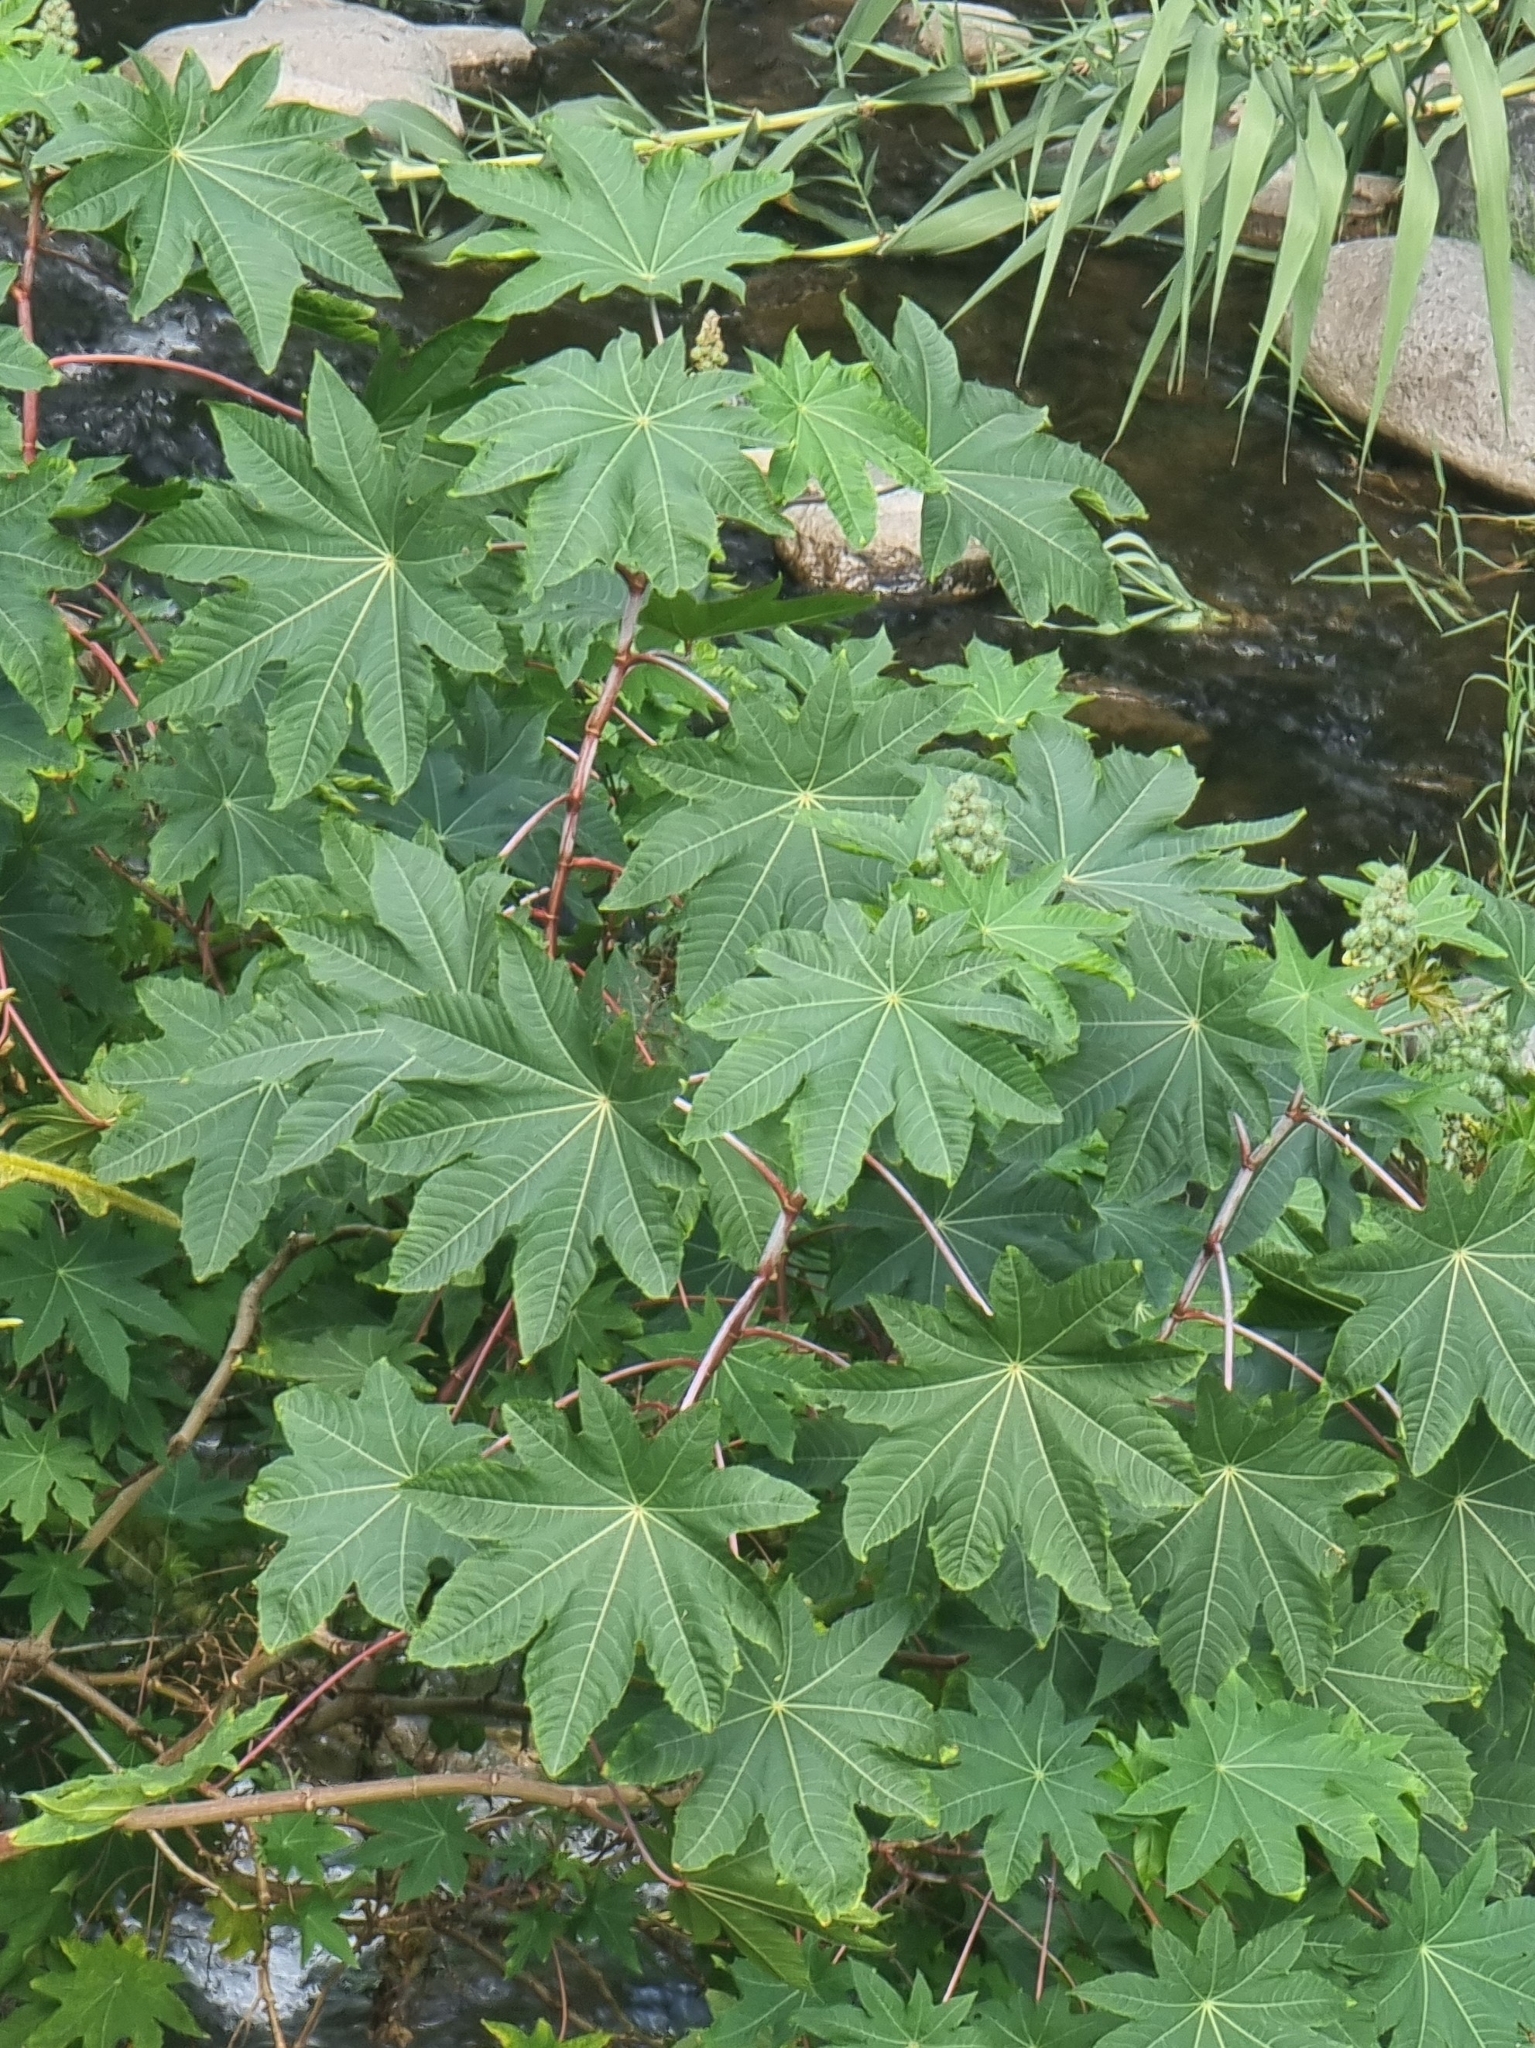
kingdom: Plantae
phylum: Tracheophyta
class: Magnoliopsida
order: Malpighiales
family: Euphorbiaceae
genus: Ricinus
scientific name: Ricinus communis
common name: Castor-oil-plant
